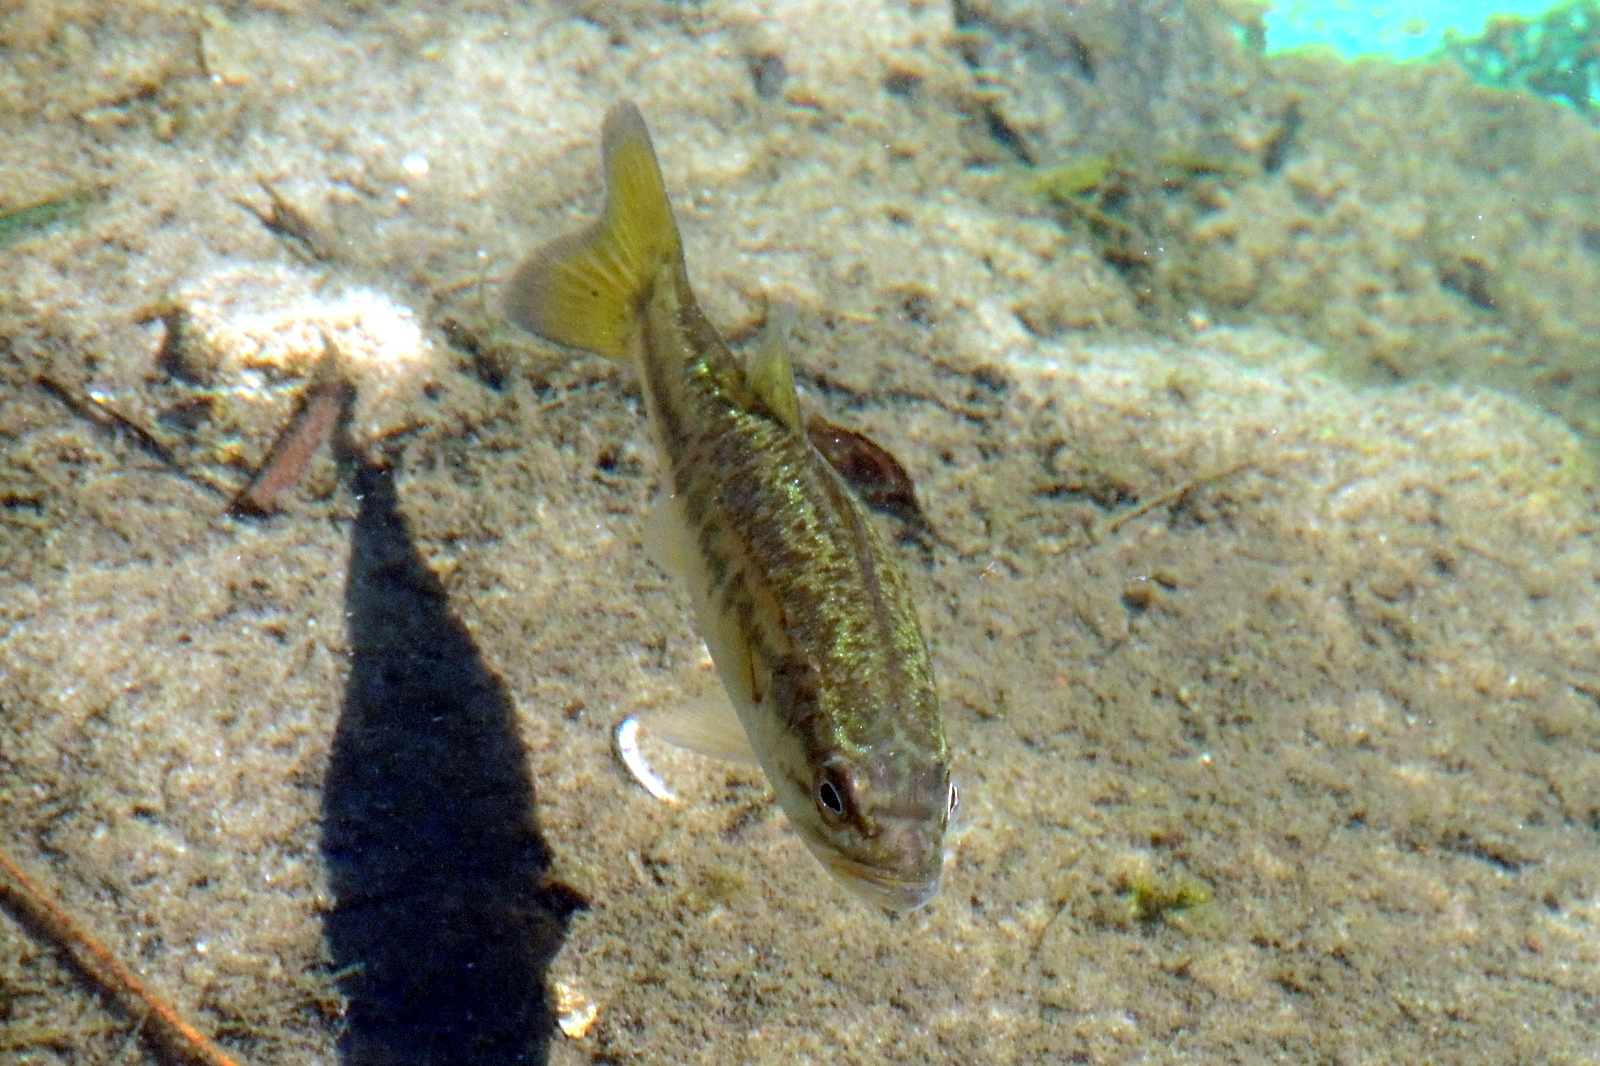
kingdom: Animalia
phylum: Chordata
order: Perciformes
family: Centrarchidae
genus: Micropterus
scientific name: Micropterus salmoides
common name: Largemouth bass
